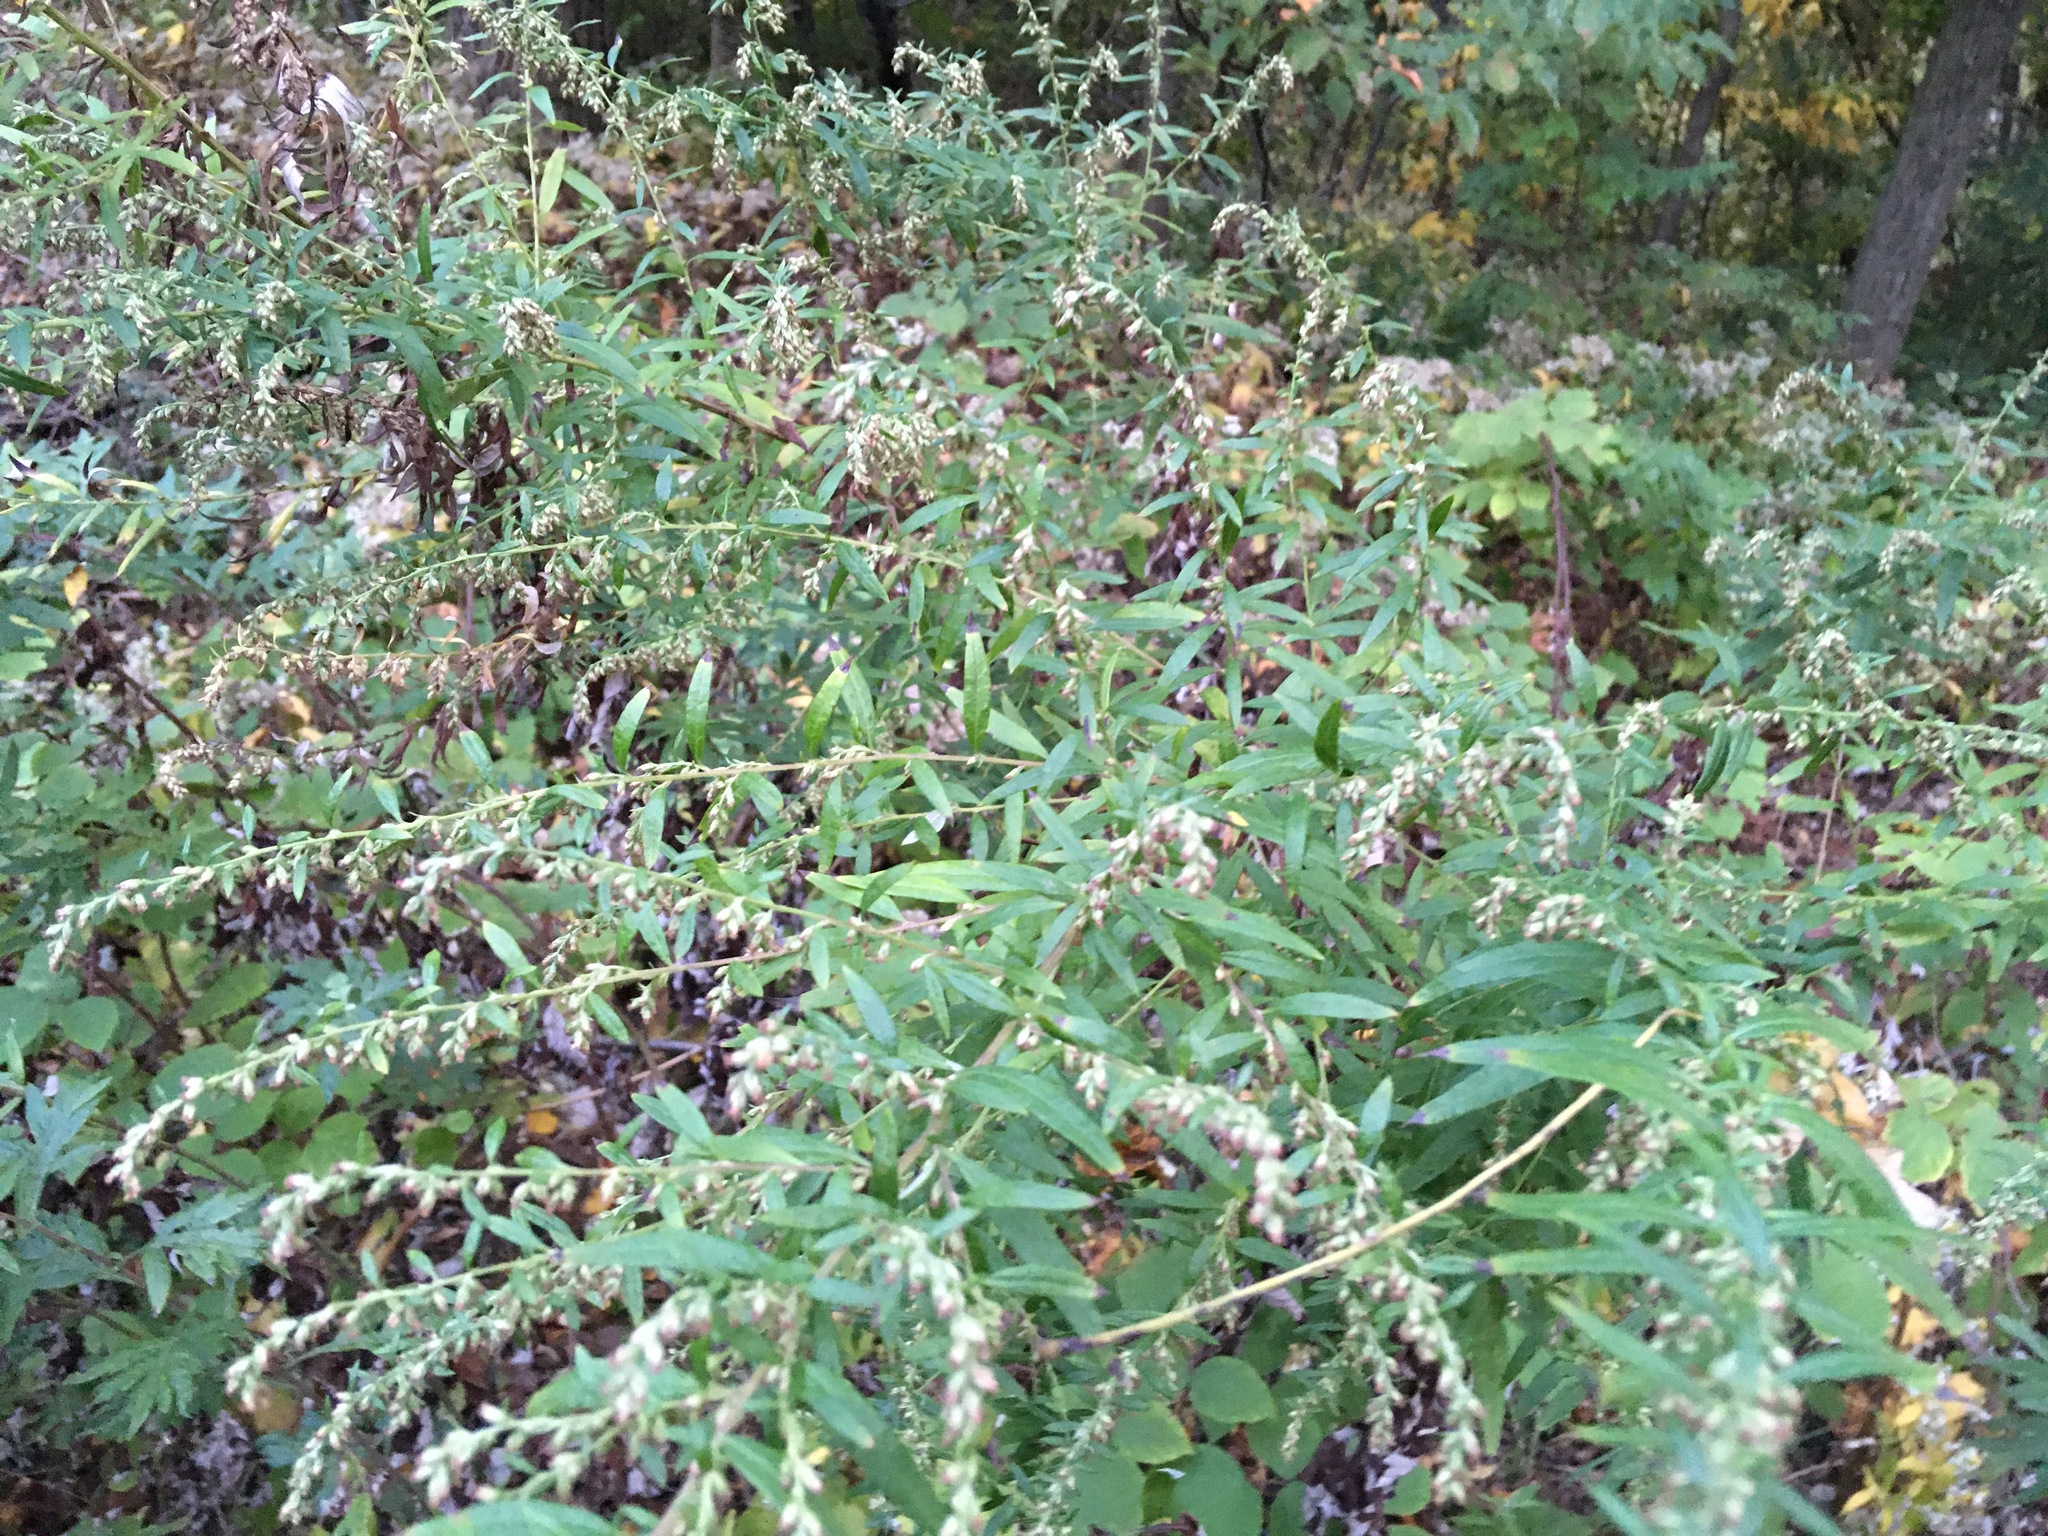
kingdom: Plantae
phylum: Tracheophyta
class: Magnoliopsida
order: Asterales
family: Asteraceae
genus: Artemisia
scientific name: Artemisia vulgaris
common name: Mugwort
